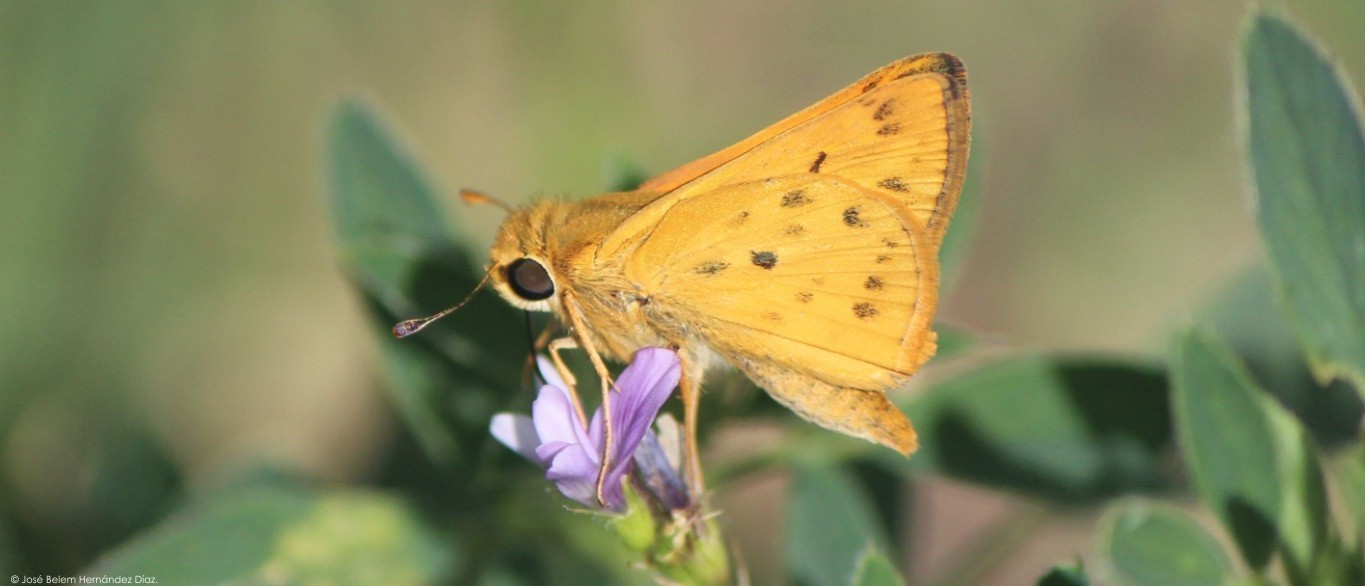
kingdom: Animalia
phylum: Arthropoda
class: Insecta
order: Lepidoptera
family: Hesperiidae
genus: Hylephila
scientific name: Hylephila phyleus
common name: Fiery skipper
